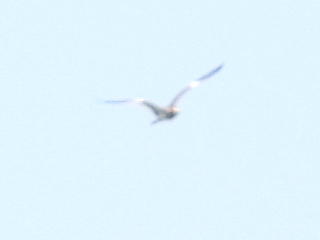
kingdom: Animalia
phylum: Chordata
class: Aves
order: Charadriiformes
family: Charadriidae
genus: Vanellus
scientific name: Vanellus cinereus
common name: Grey-headed lapwing
